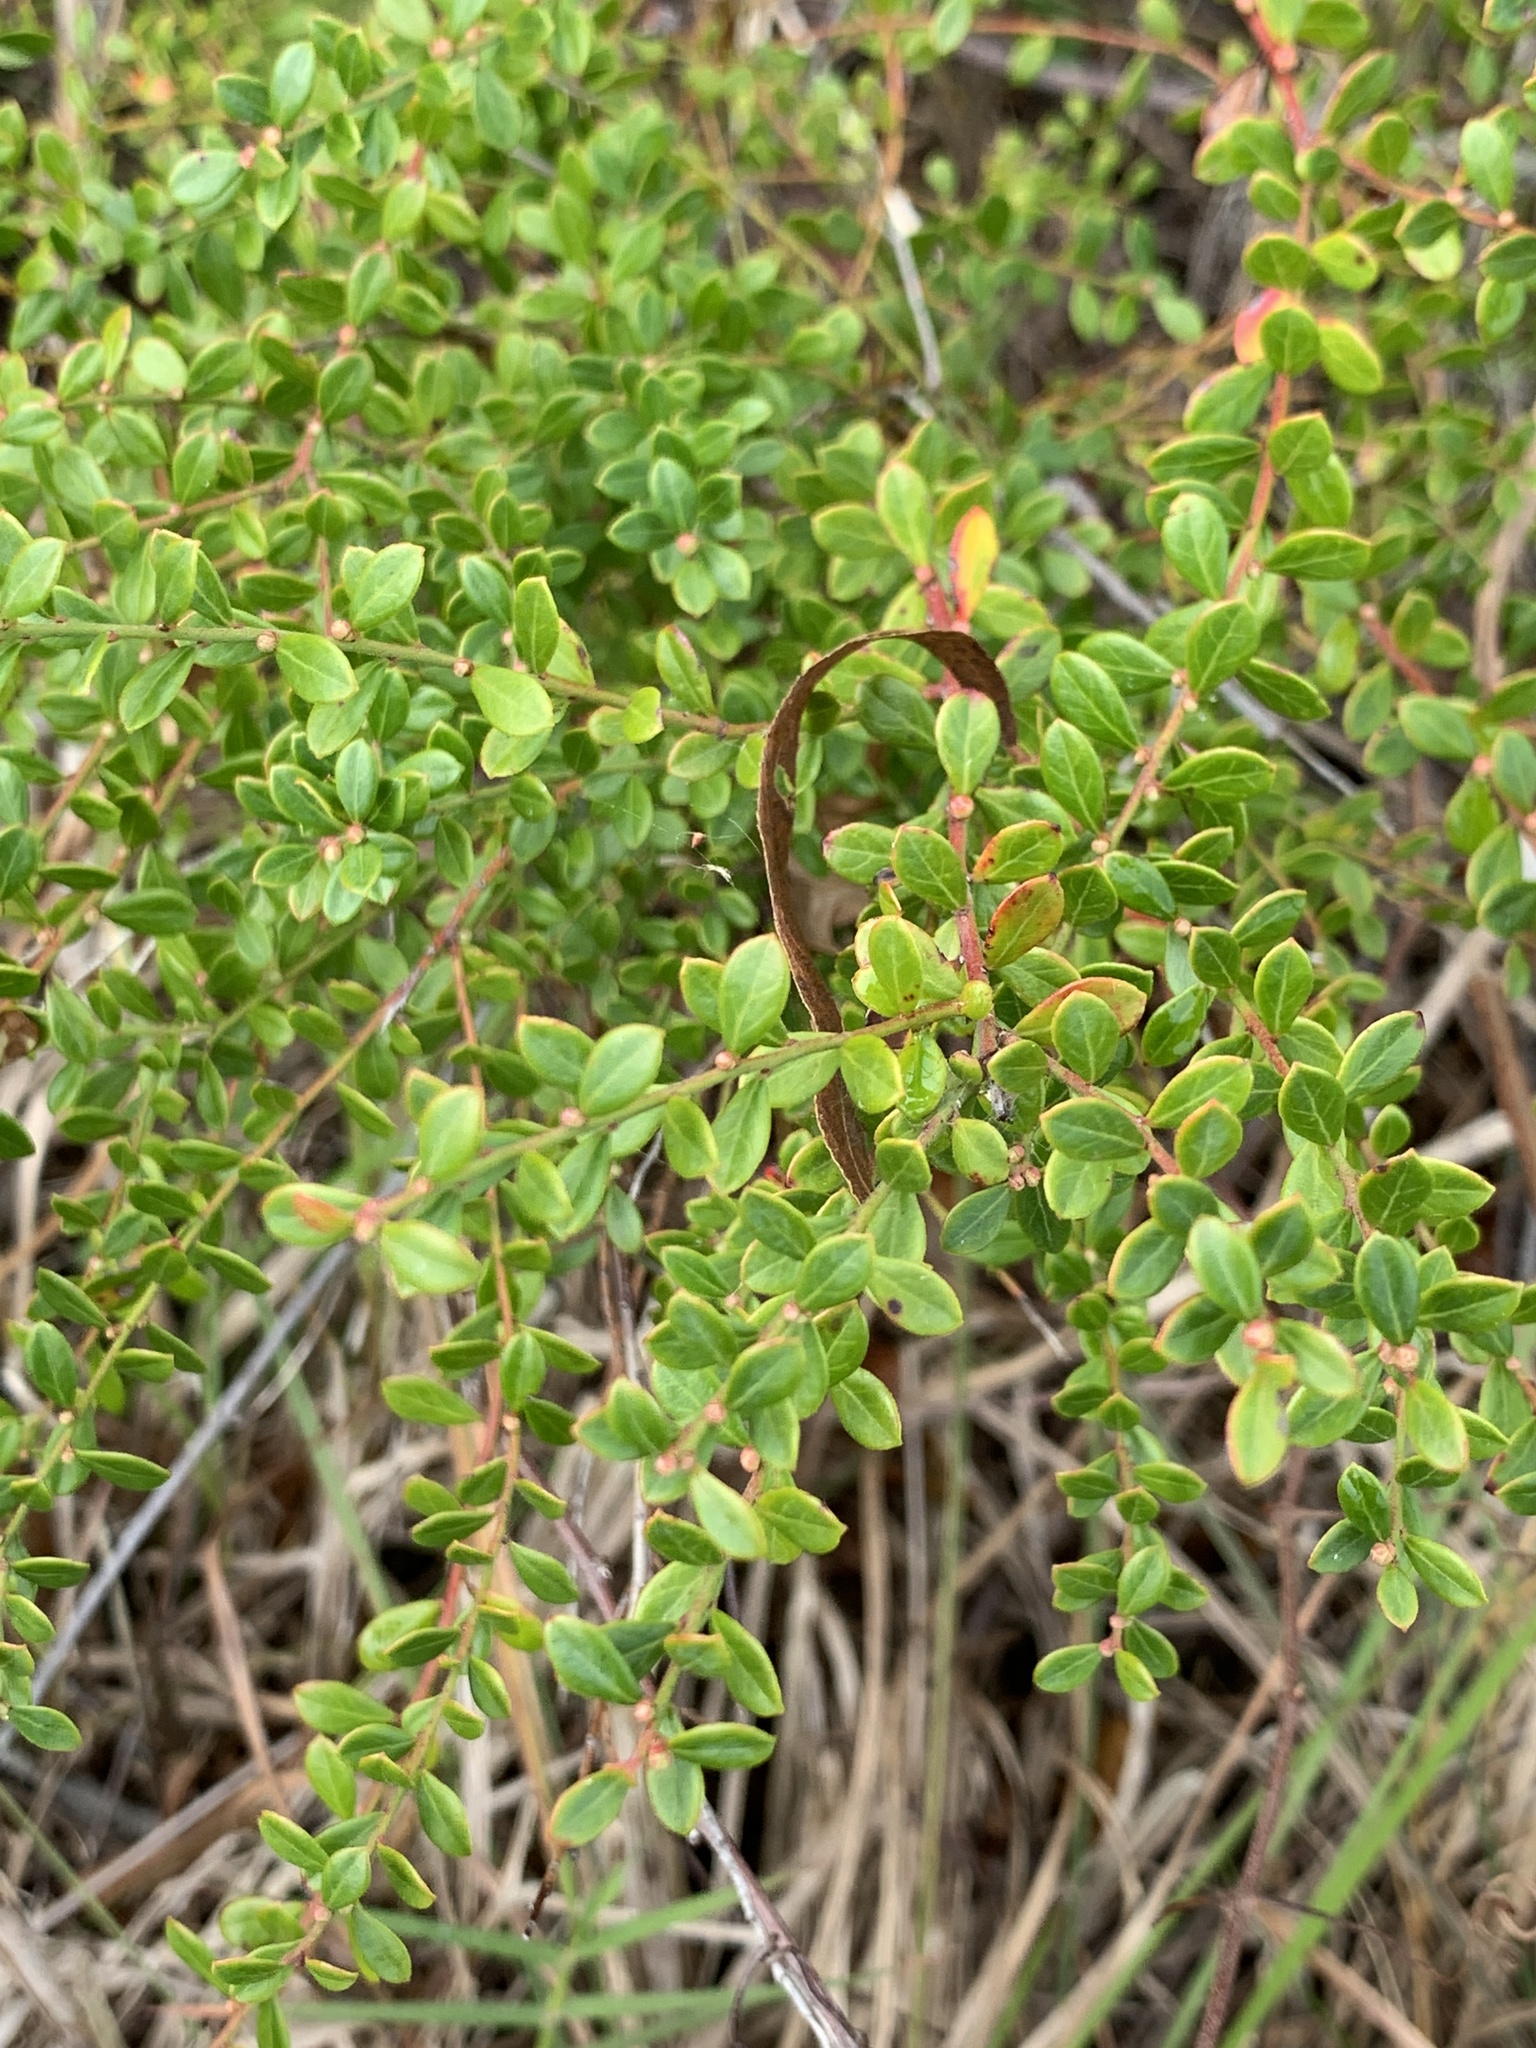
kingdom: Plantae
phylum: Tracheophyta
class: Magnoliopsida
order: Ericales
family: Ericaceae
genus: Vaccinium
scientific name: Vaccinium myrsinites
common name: Evergreen blueberry
